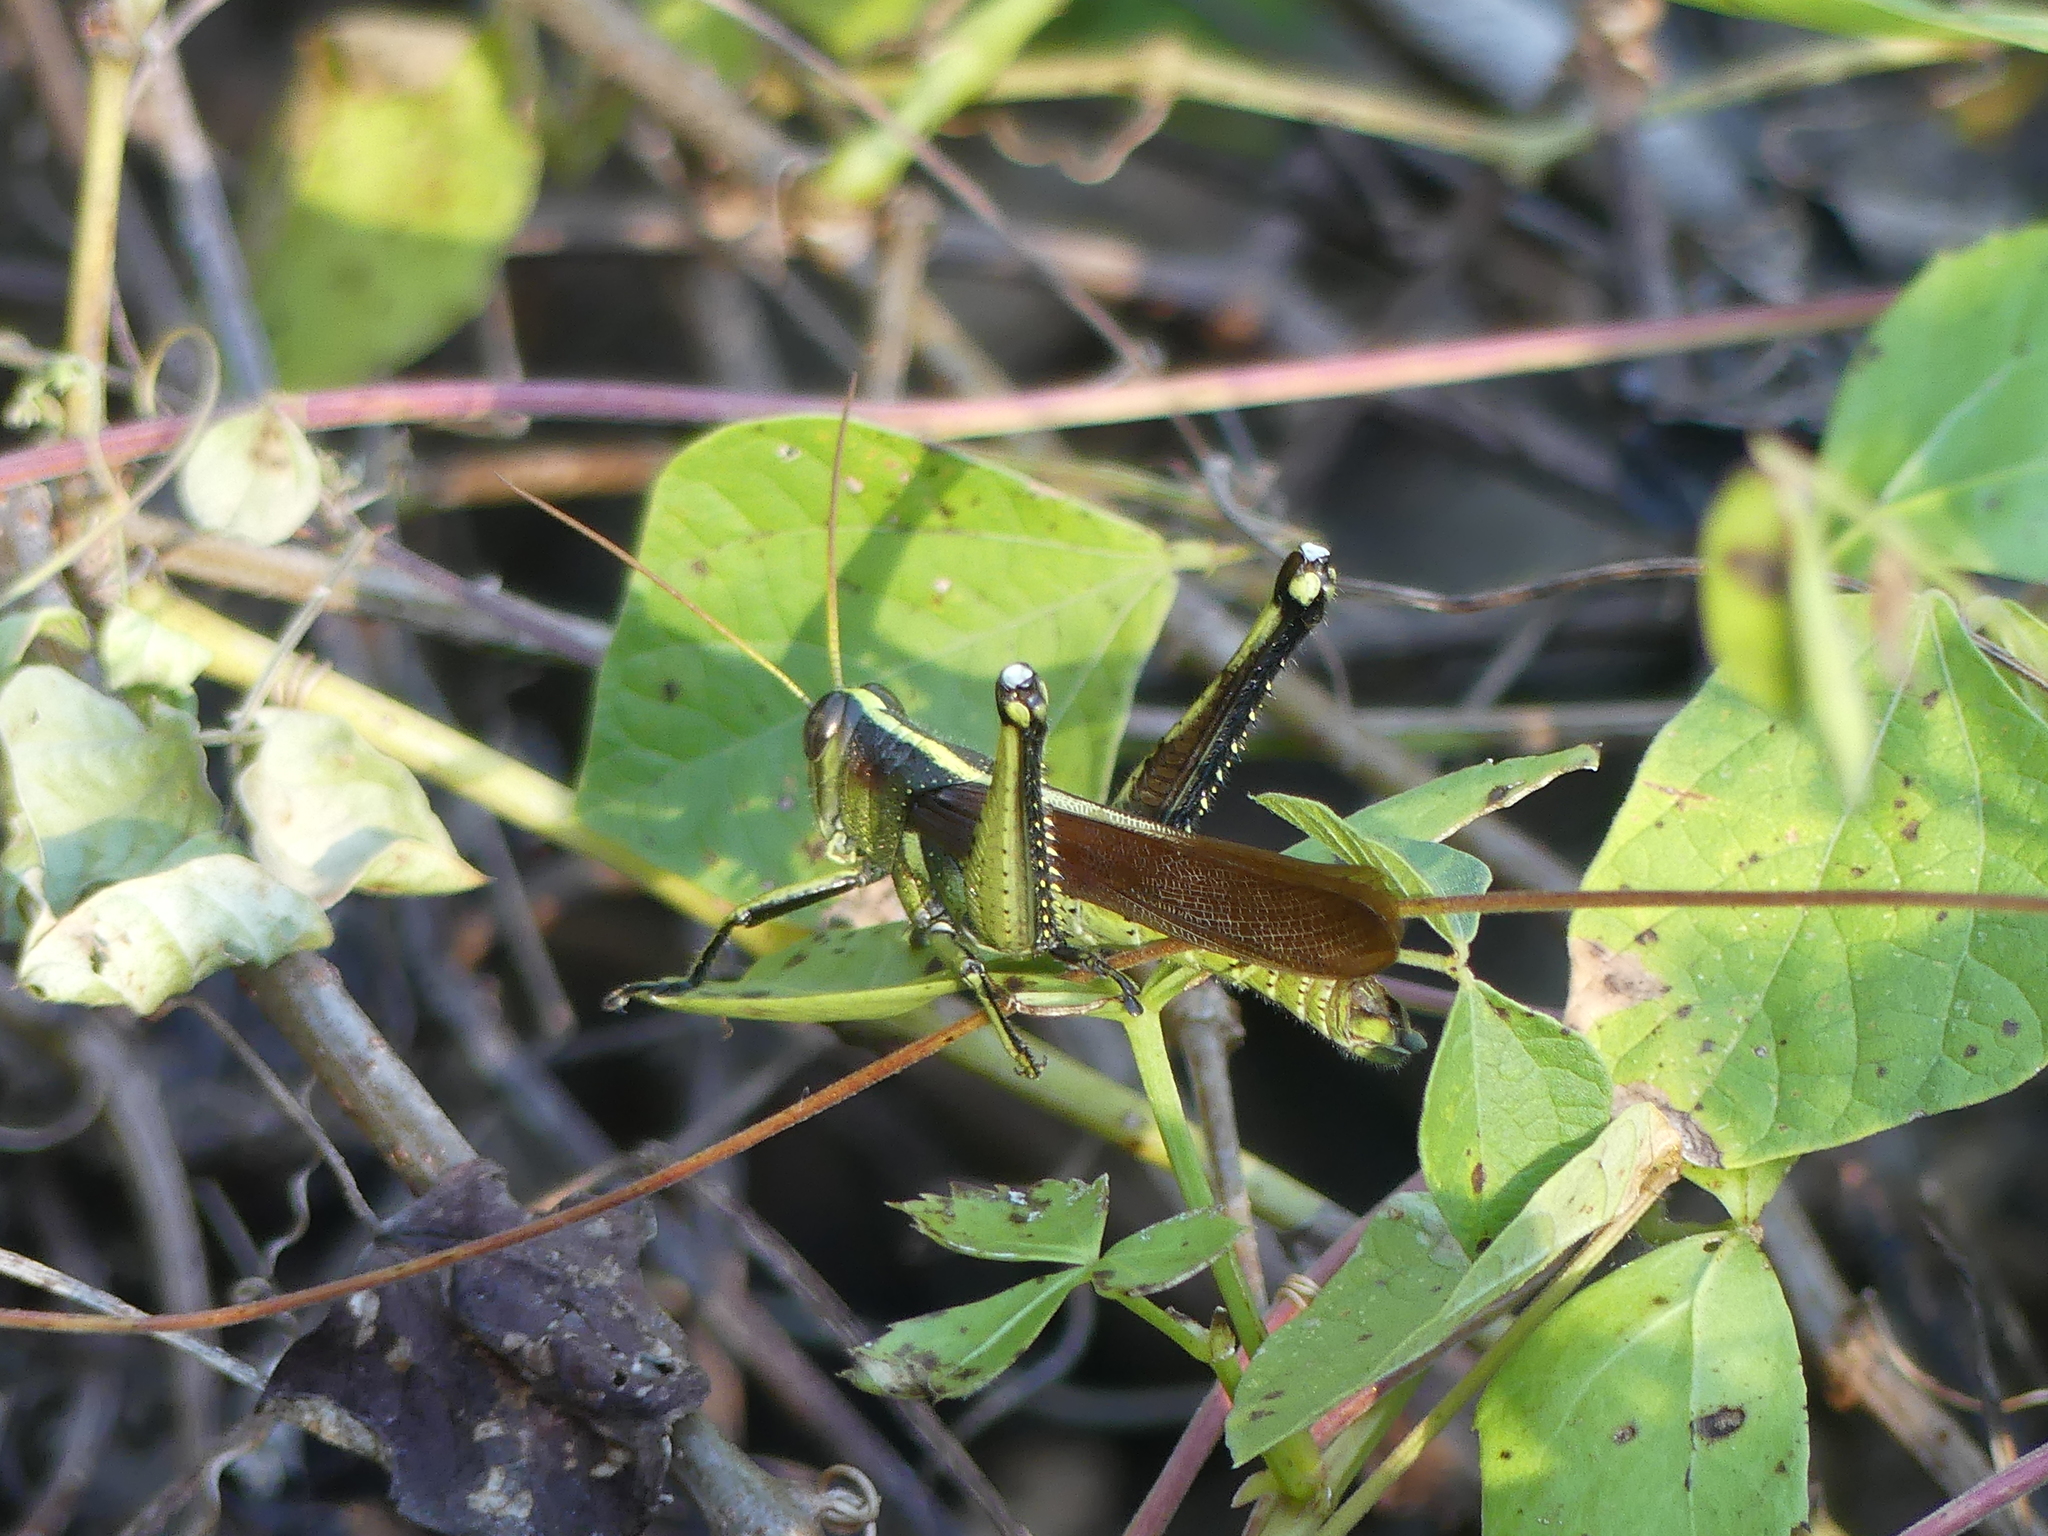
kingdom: Animalia
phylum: Arthropoda
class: Insecta
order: Orthoptera
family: Acrididae
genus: Schistocerca
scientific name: Schistocerca obscura
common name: Obscure bird grasshopper
